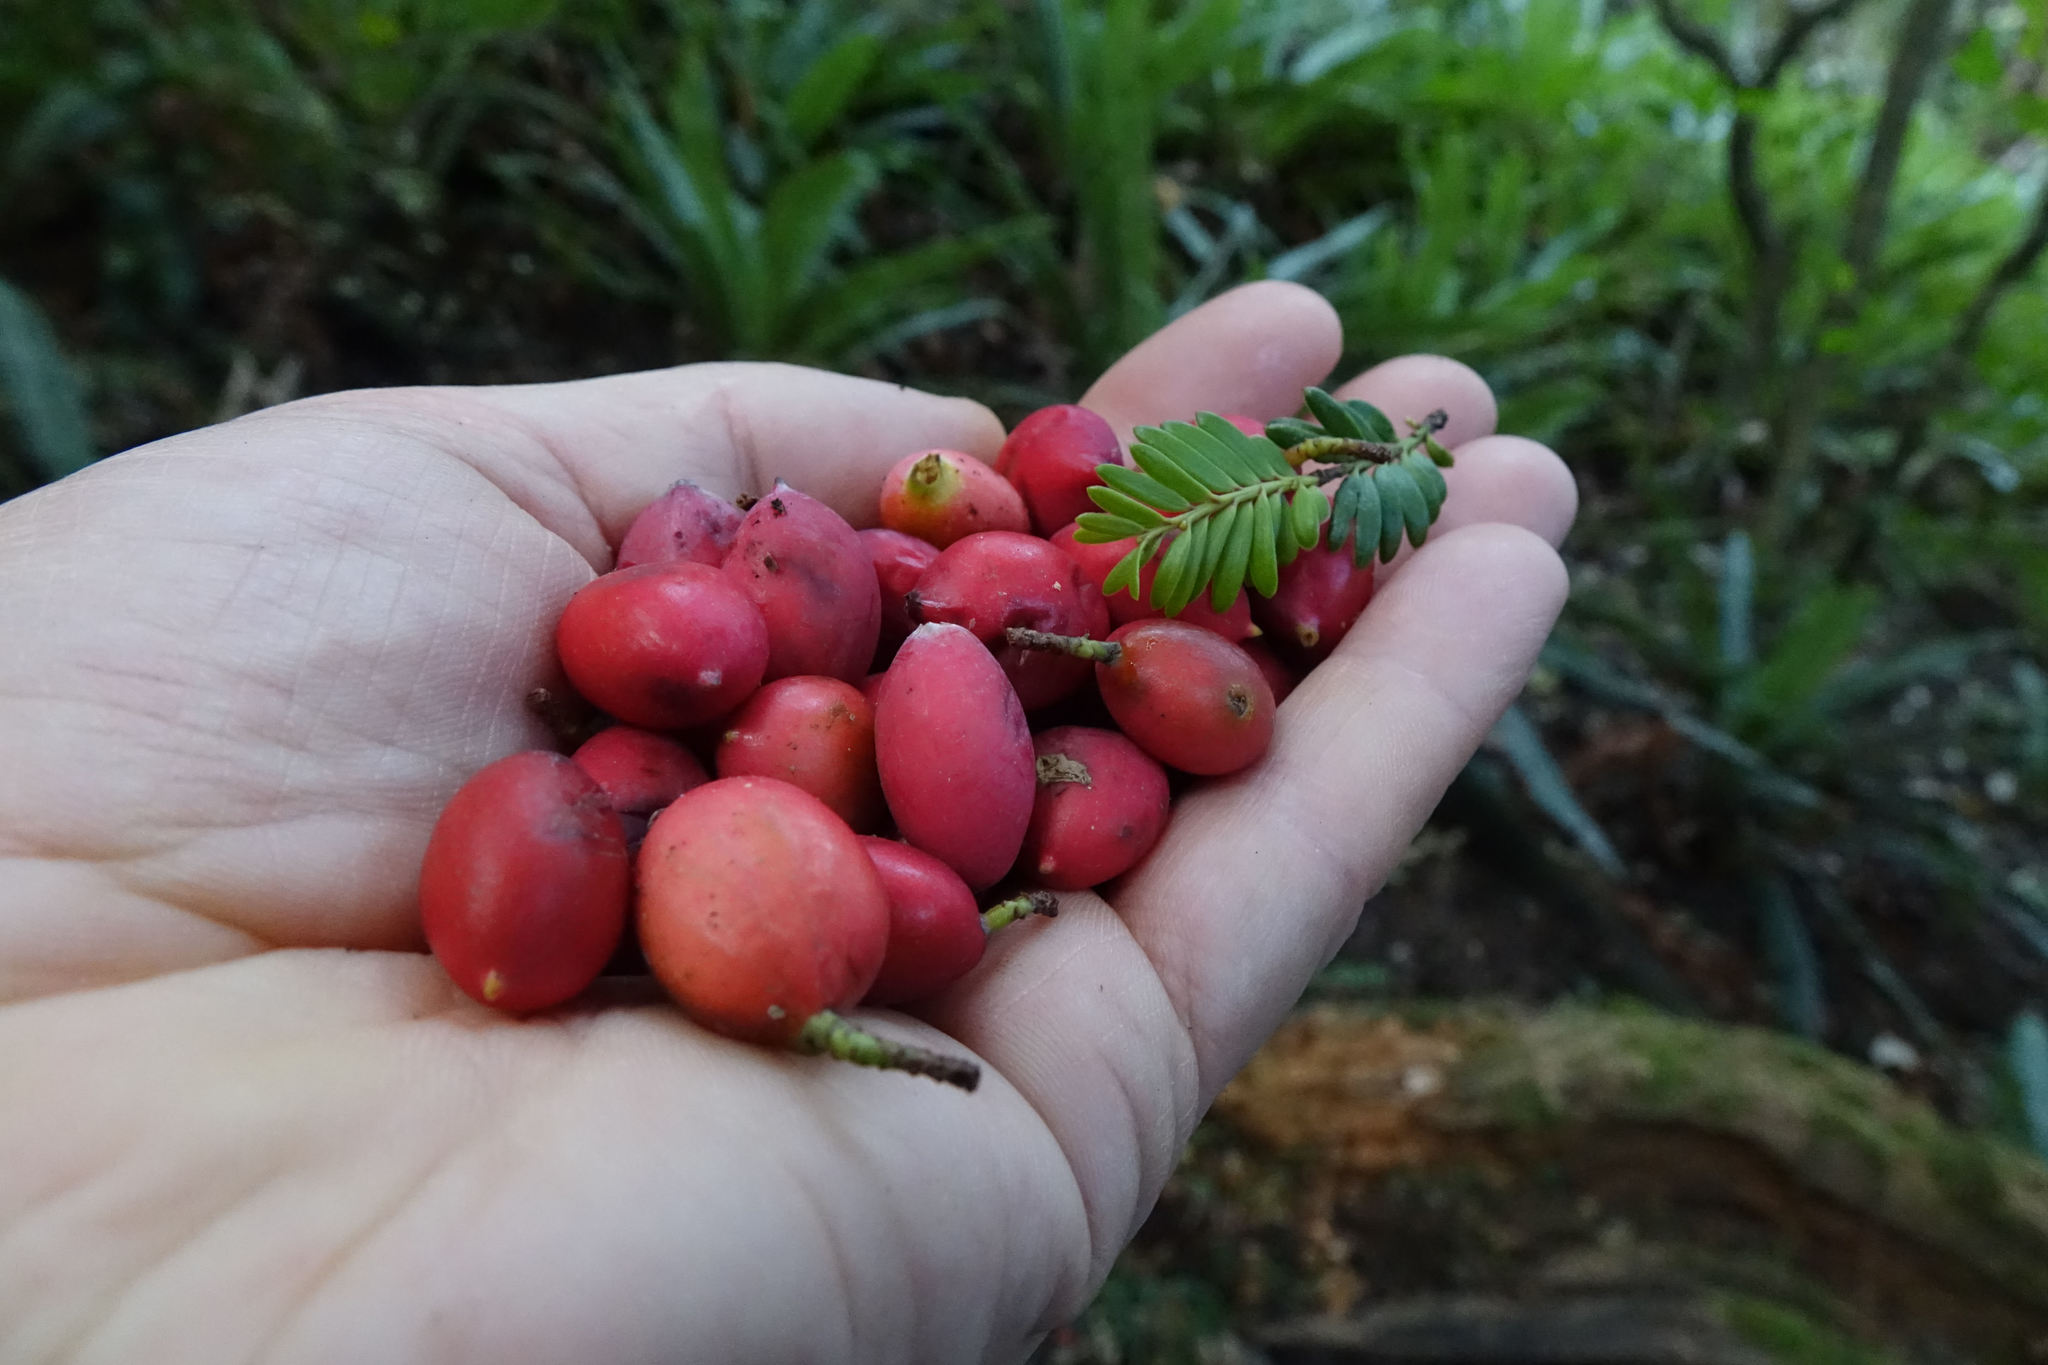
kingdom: Plantae
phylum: Tracheophyta
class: Pinopsida
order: Pinales
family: Podocarpaceae
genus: Prumnopitys
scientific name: Prumnopitys ferruginea
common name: Brown pine
